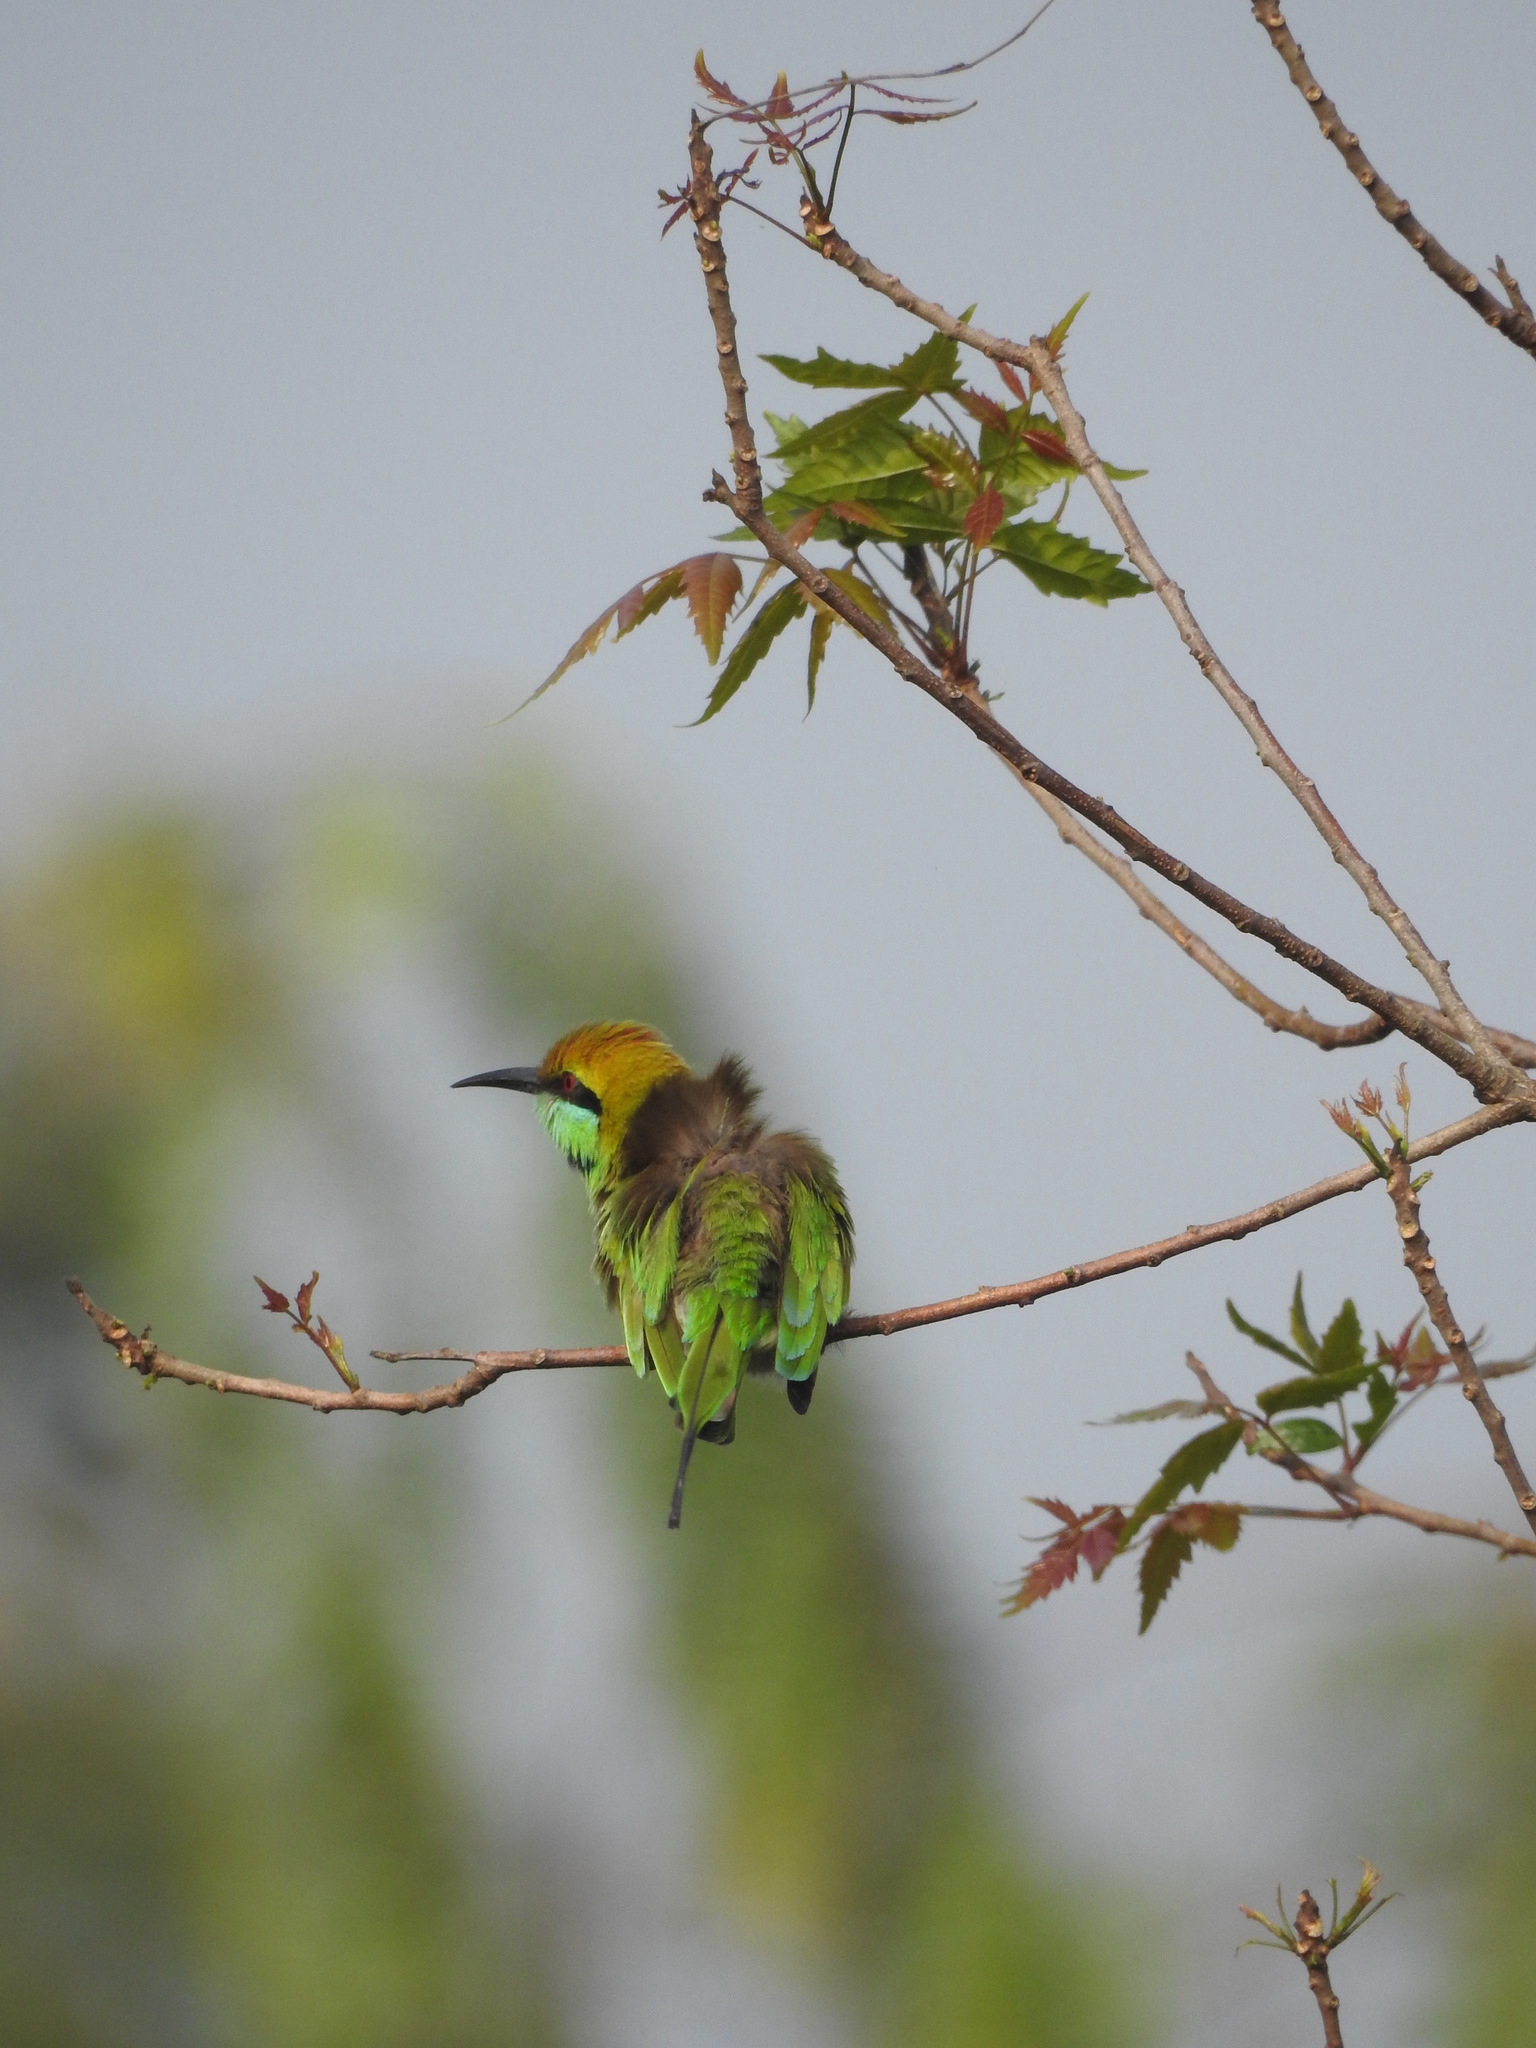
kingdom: Animalia
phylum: Chordata
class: Aves
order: Coraciiformes
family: Meropidae
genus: Merops
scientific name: Merops orientalis
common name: Green bee-eater
